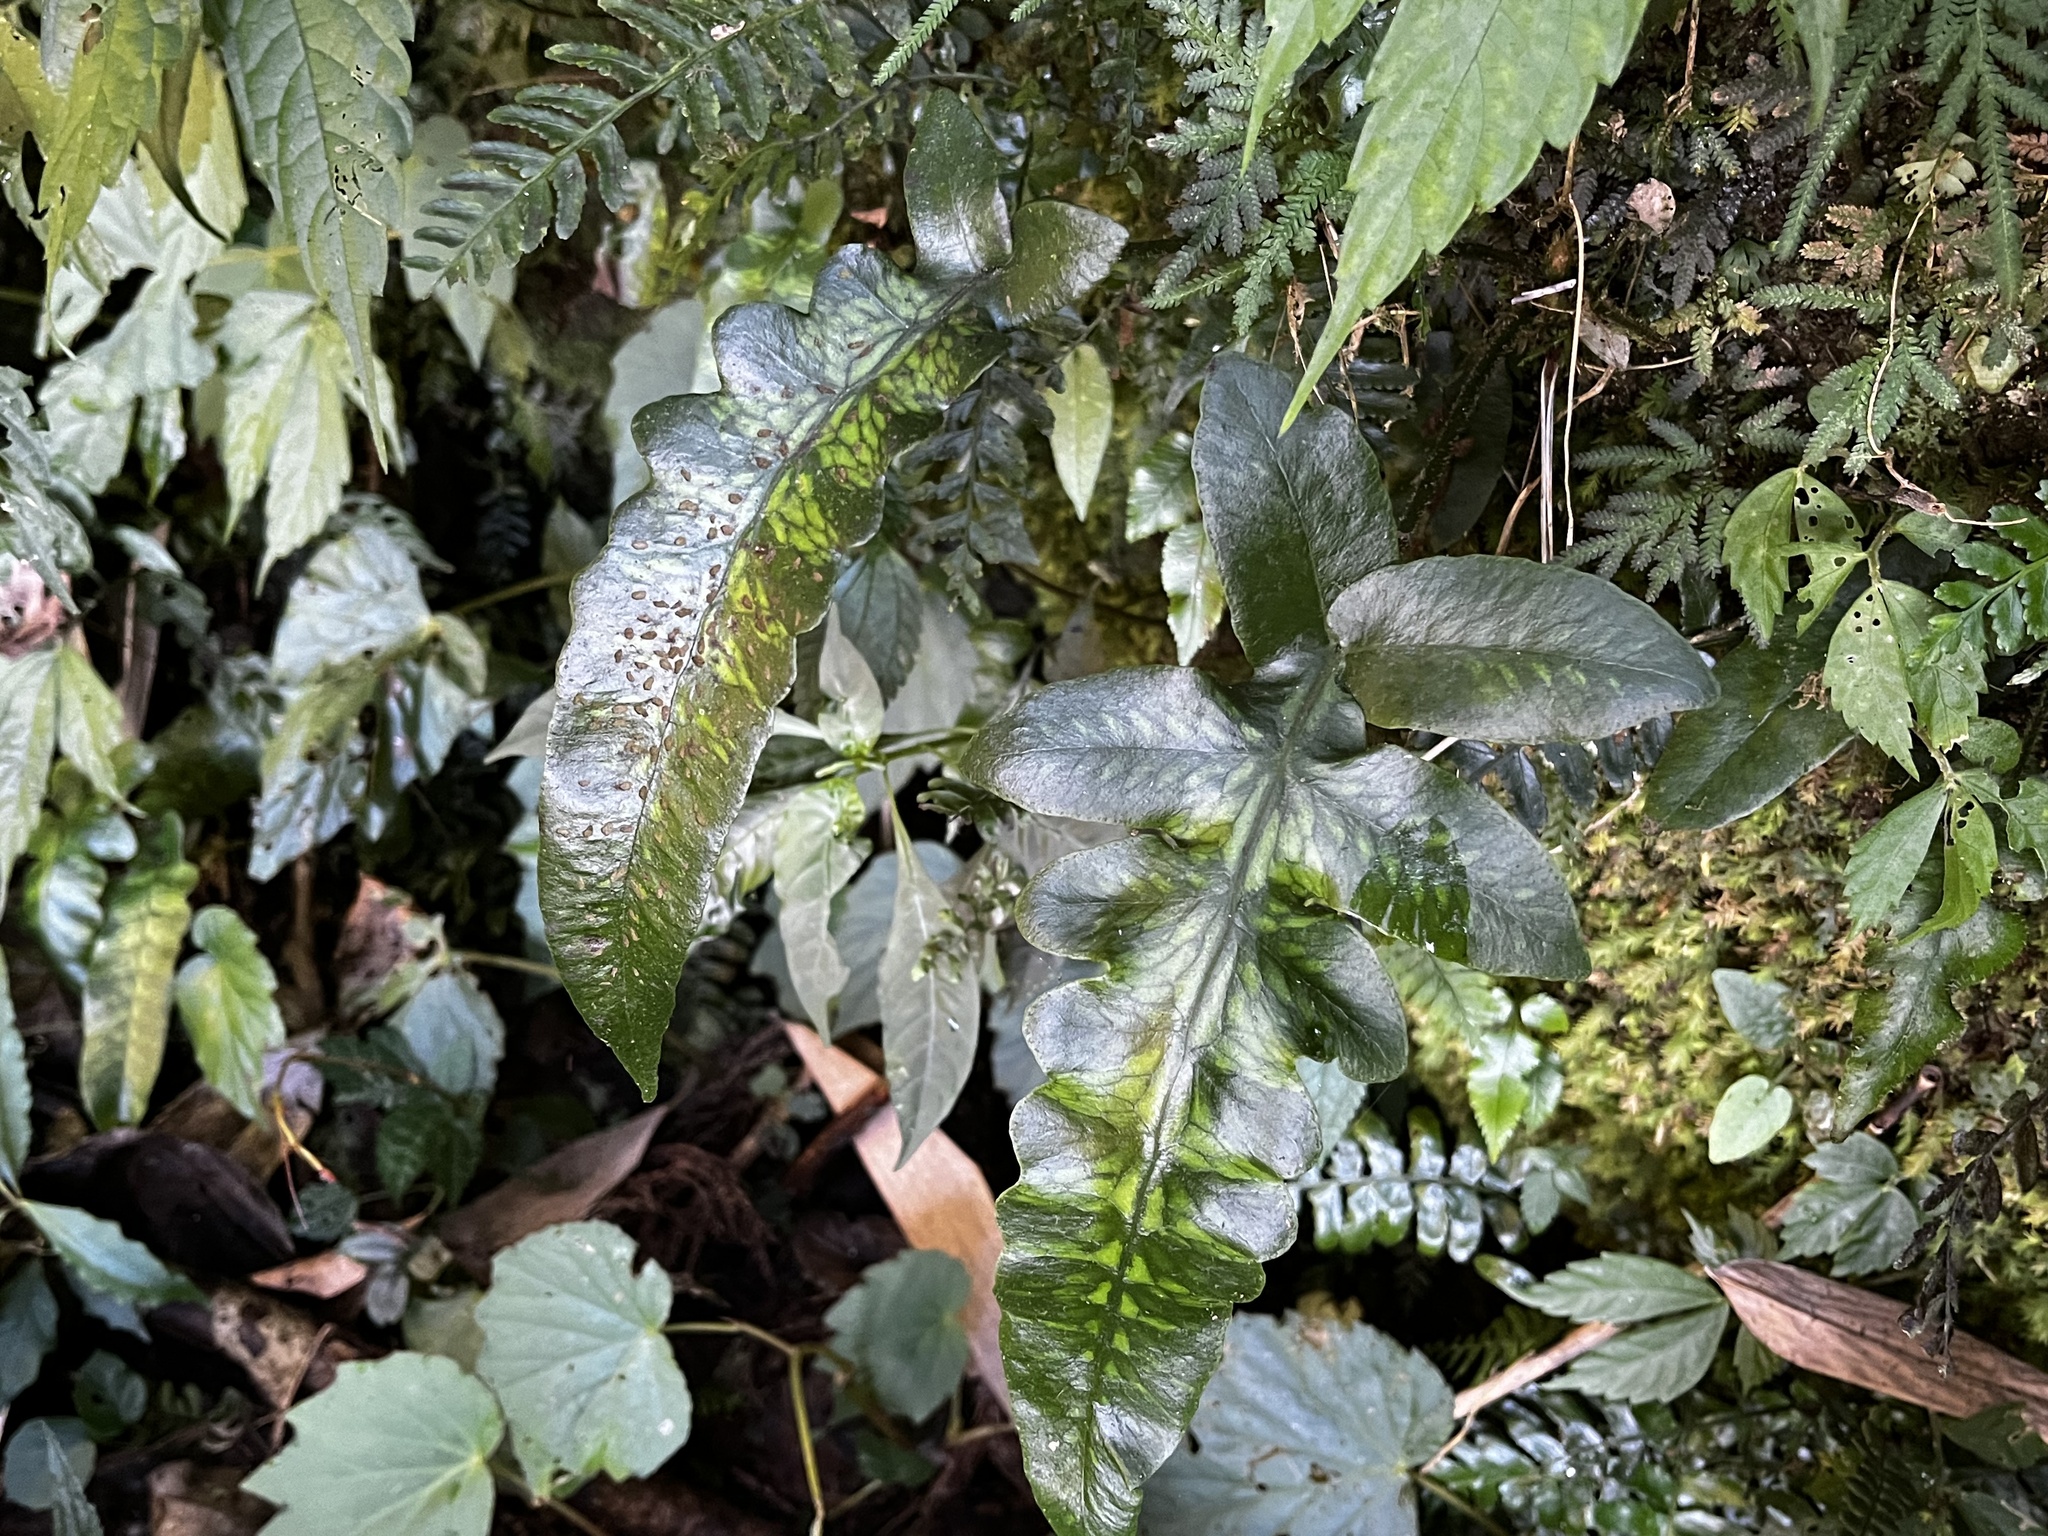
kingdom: Plantae
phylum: Tracheophyta
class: Polypodiopsida
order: Polypodiales
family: Athyriaceae
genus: Deparia
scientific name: Deparia formosana
